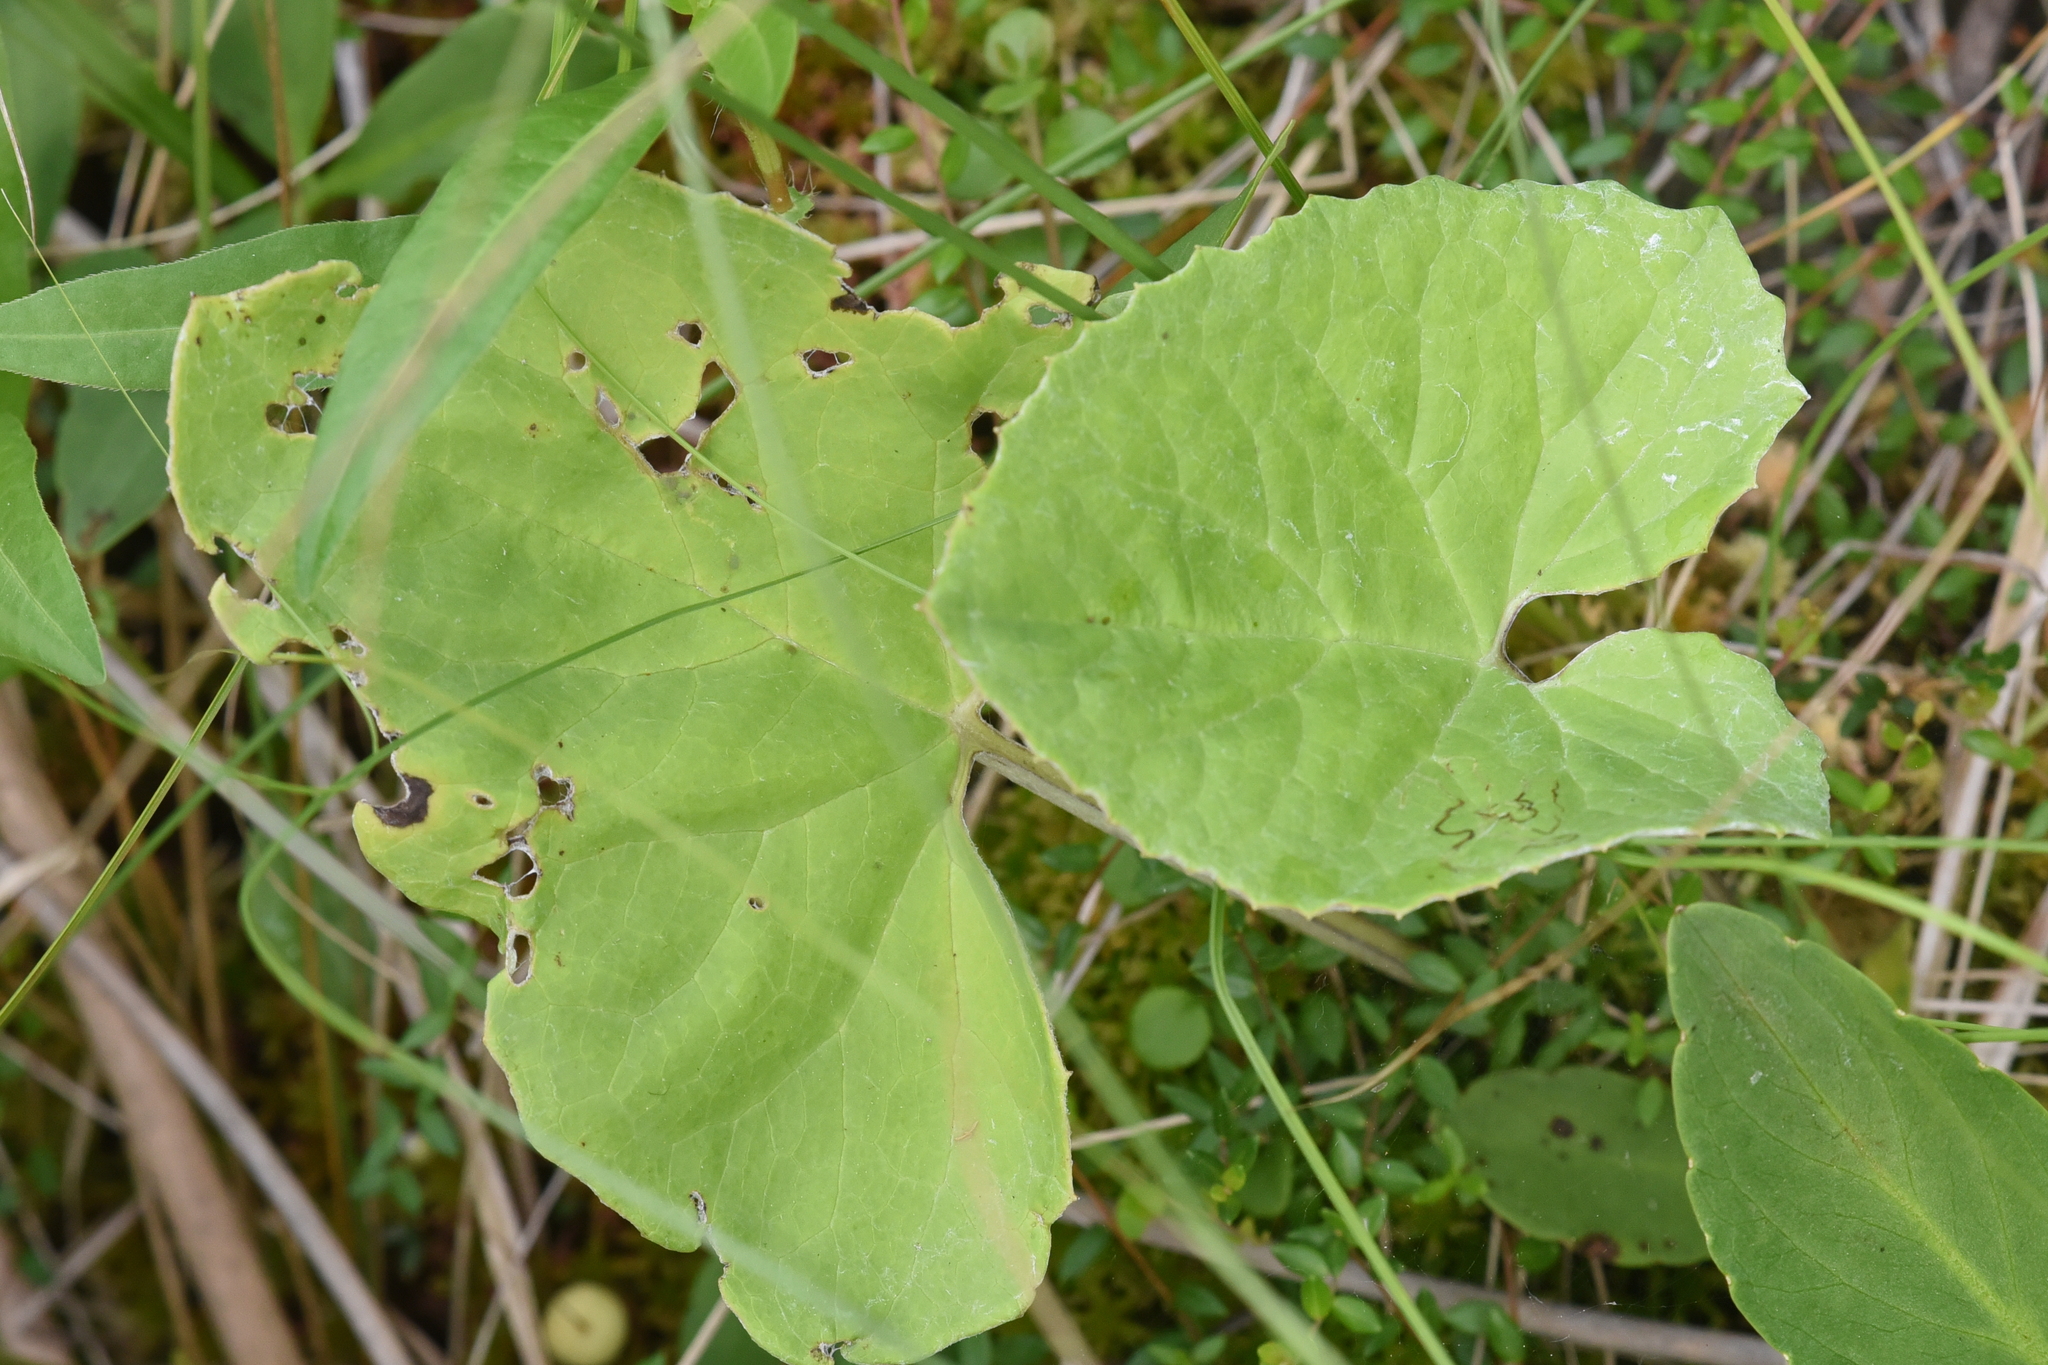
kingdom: Plantae
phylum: Tracheophyta
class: Magnoliopsida
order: Asterales
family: Asteraceae
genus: Petasites
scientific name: Petasites frigidus
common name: Arctic butterbur
